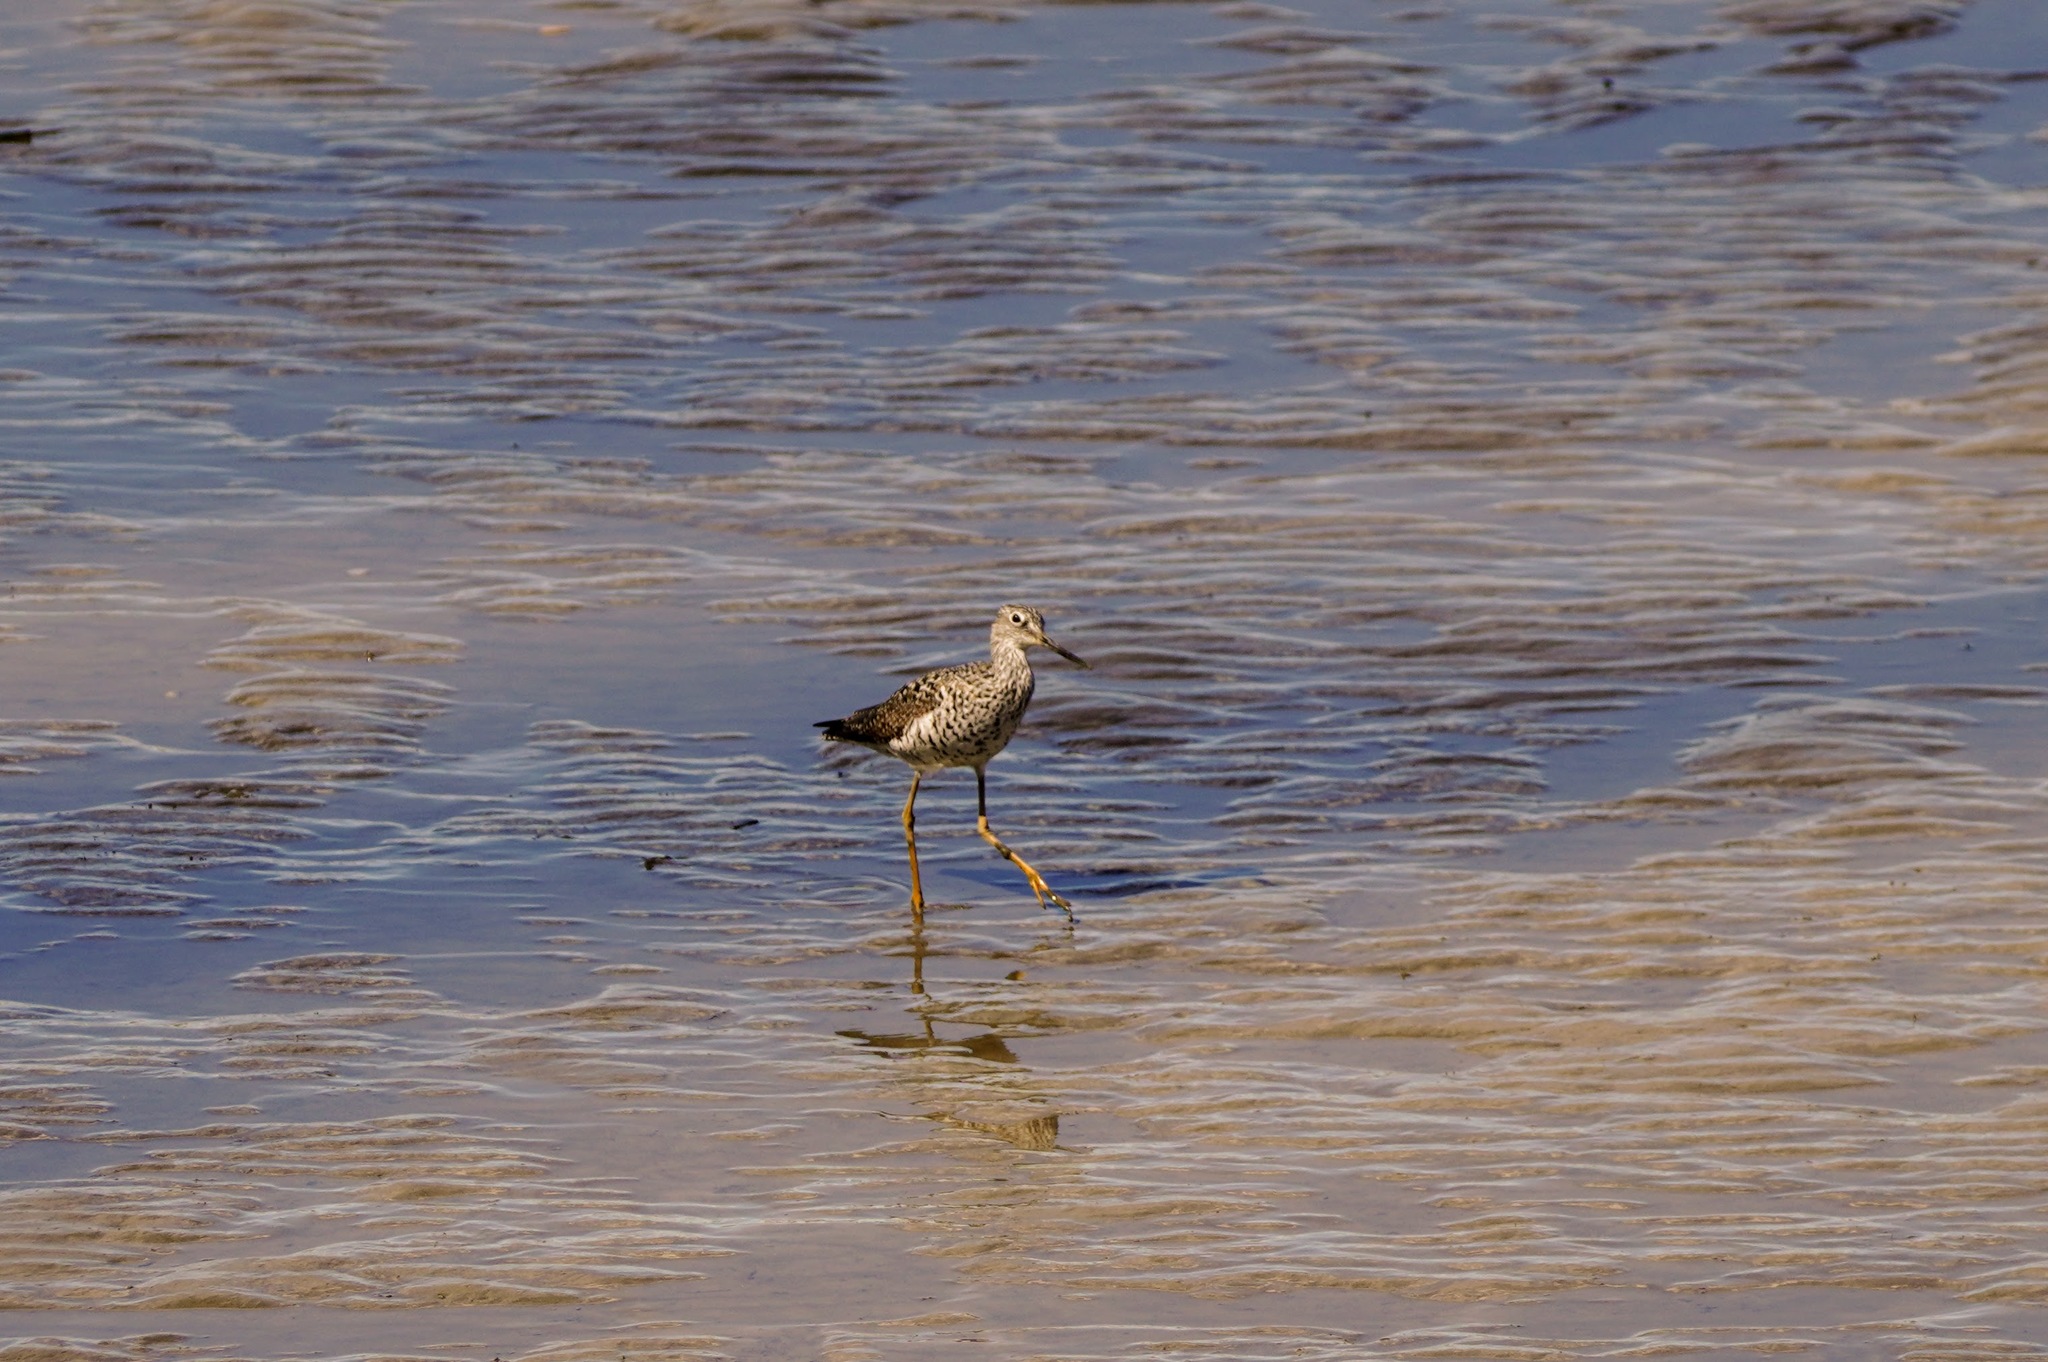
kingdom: Animalia
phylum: Chordata
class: Aves
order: Charadriiformes
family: Scolopacidae
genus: Tringa
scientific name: Tringa melanoleuca
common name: Greater yellowlegs
